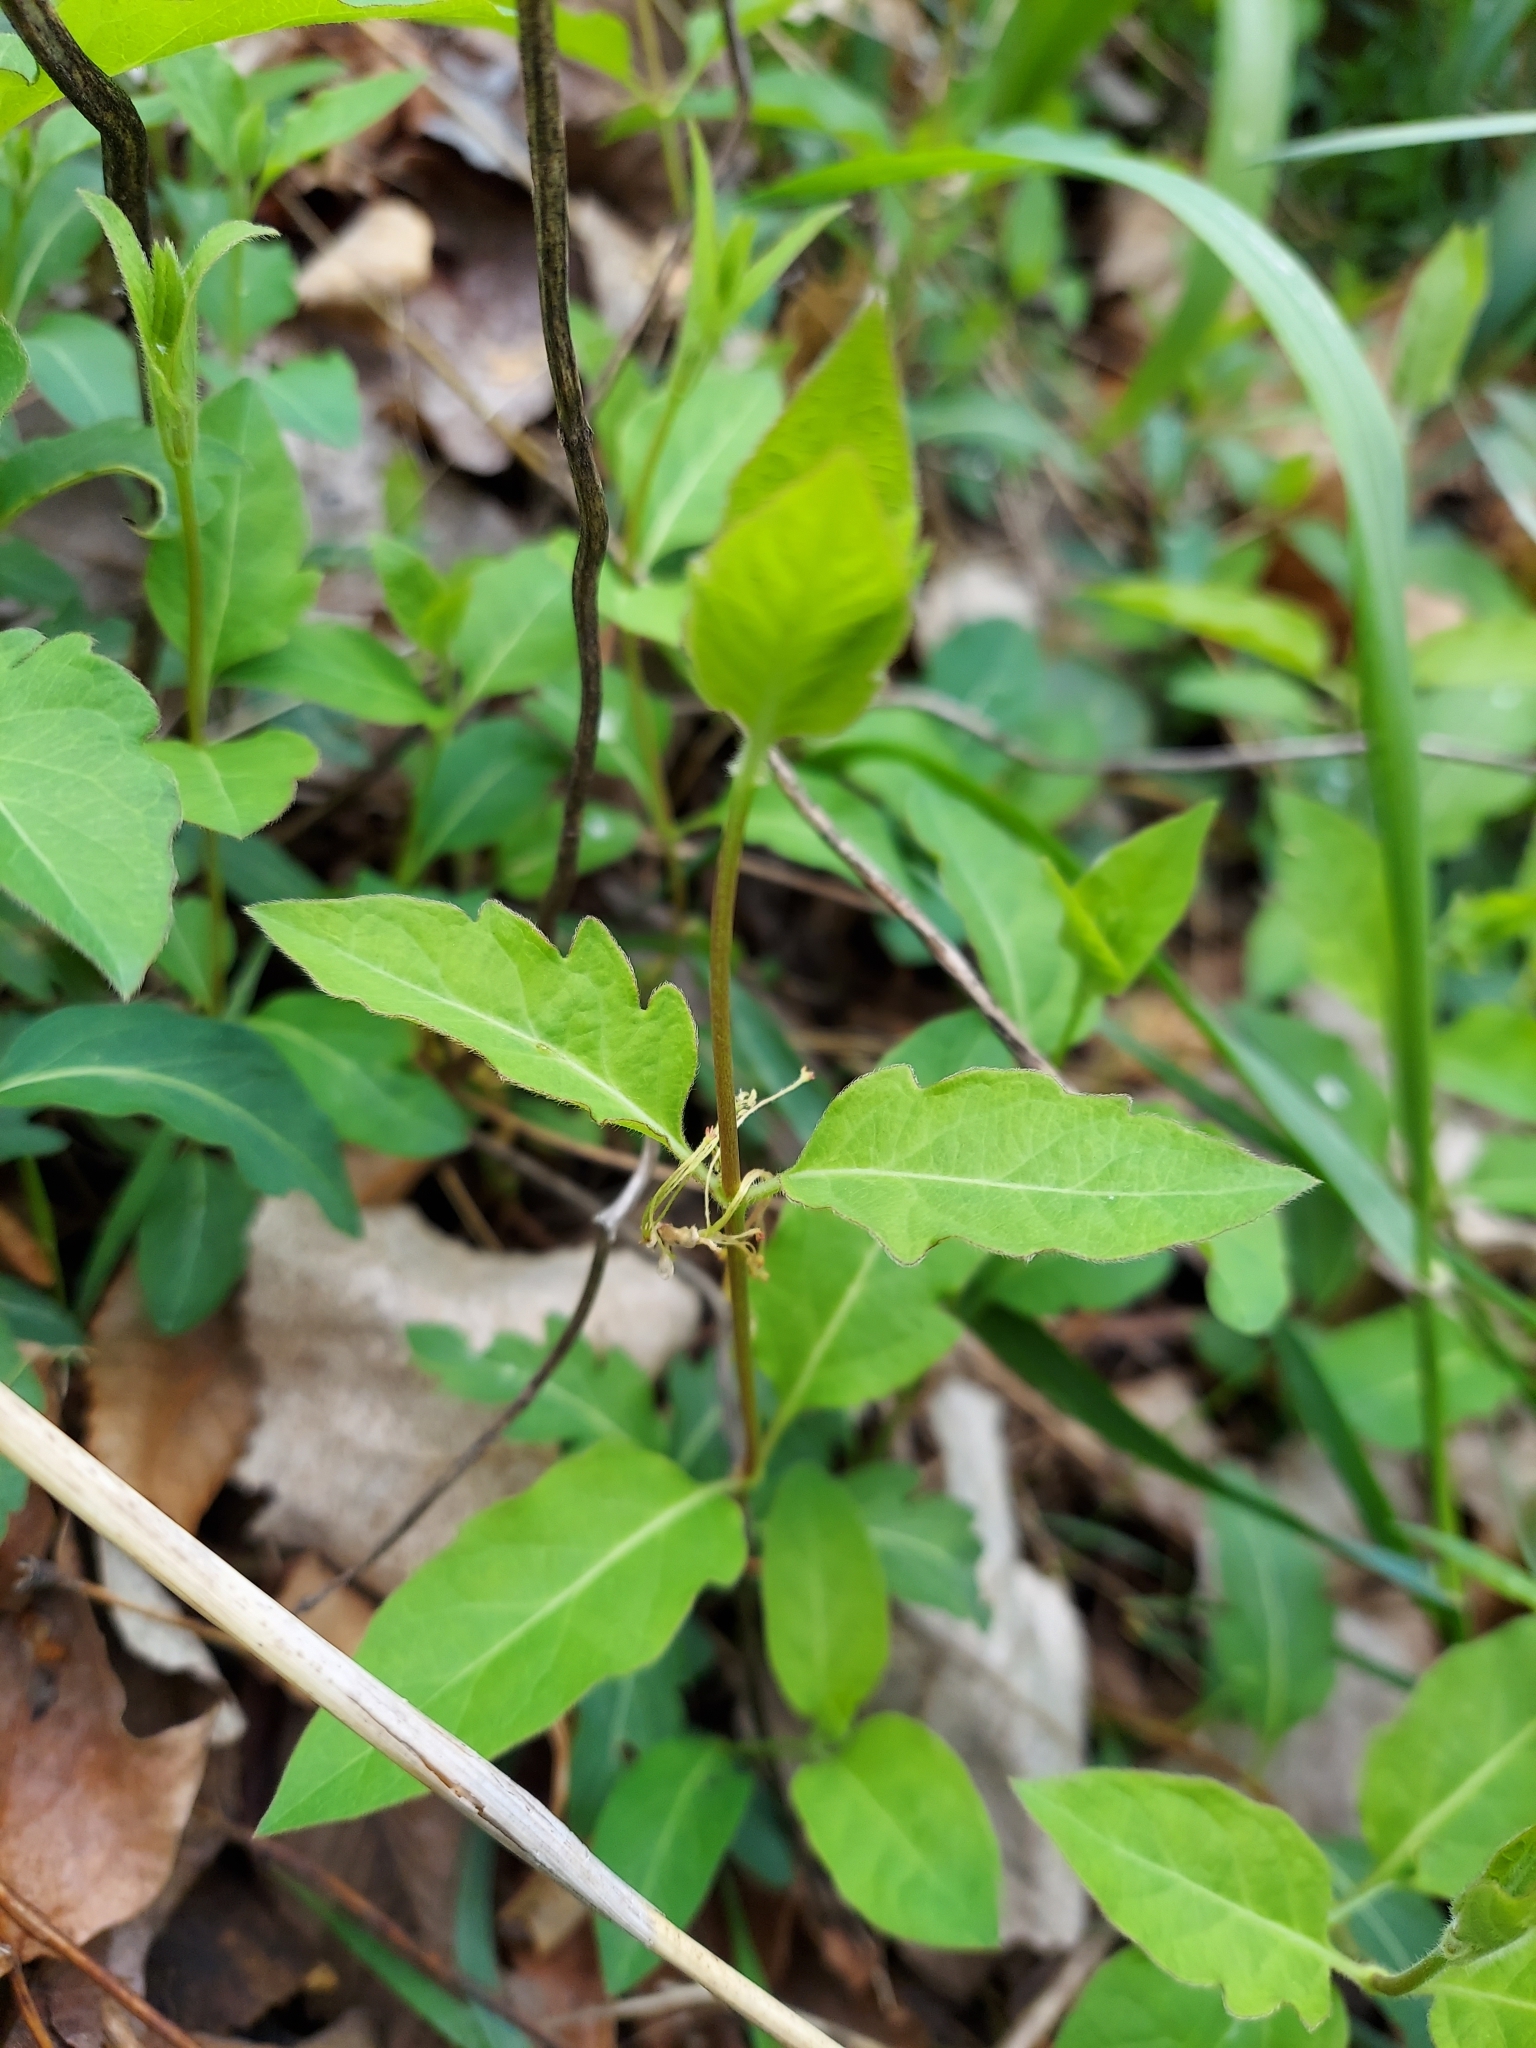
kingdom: Plantae
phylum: Tracheophyta
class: Magnoliopsida
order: Dipsacales
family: Caprifoliaceae
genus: Lonicera
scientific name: Lonicera japonica
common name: Japanese honeysuckle
